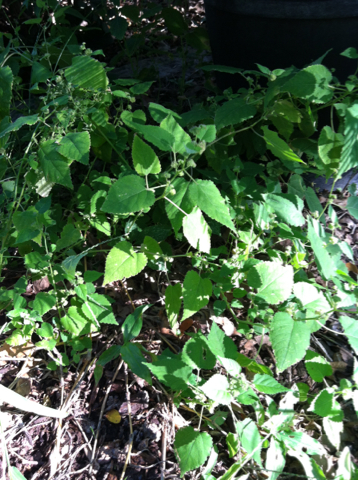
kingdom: Plantae
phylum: Tracheophyta
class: Magnoliopsida
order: Rosales
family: Moraceae
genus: Fatoua
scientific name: Fatoua villosa
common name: Hairy crabweed
